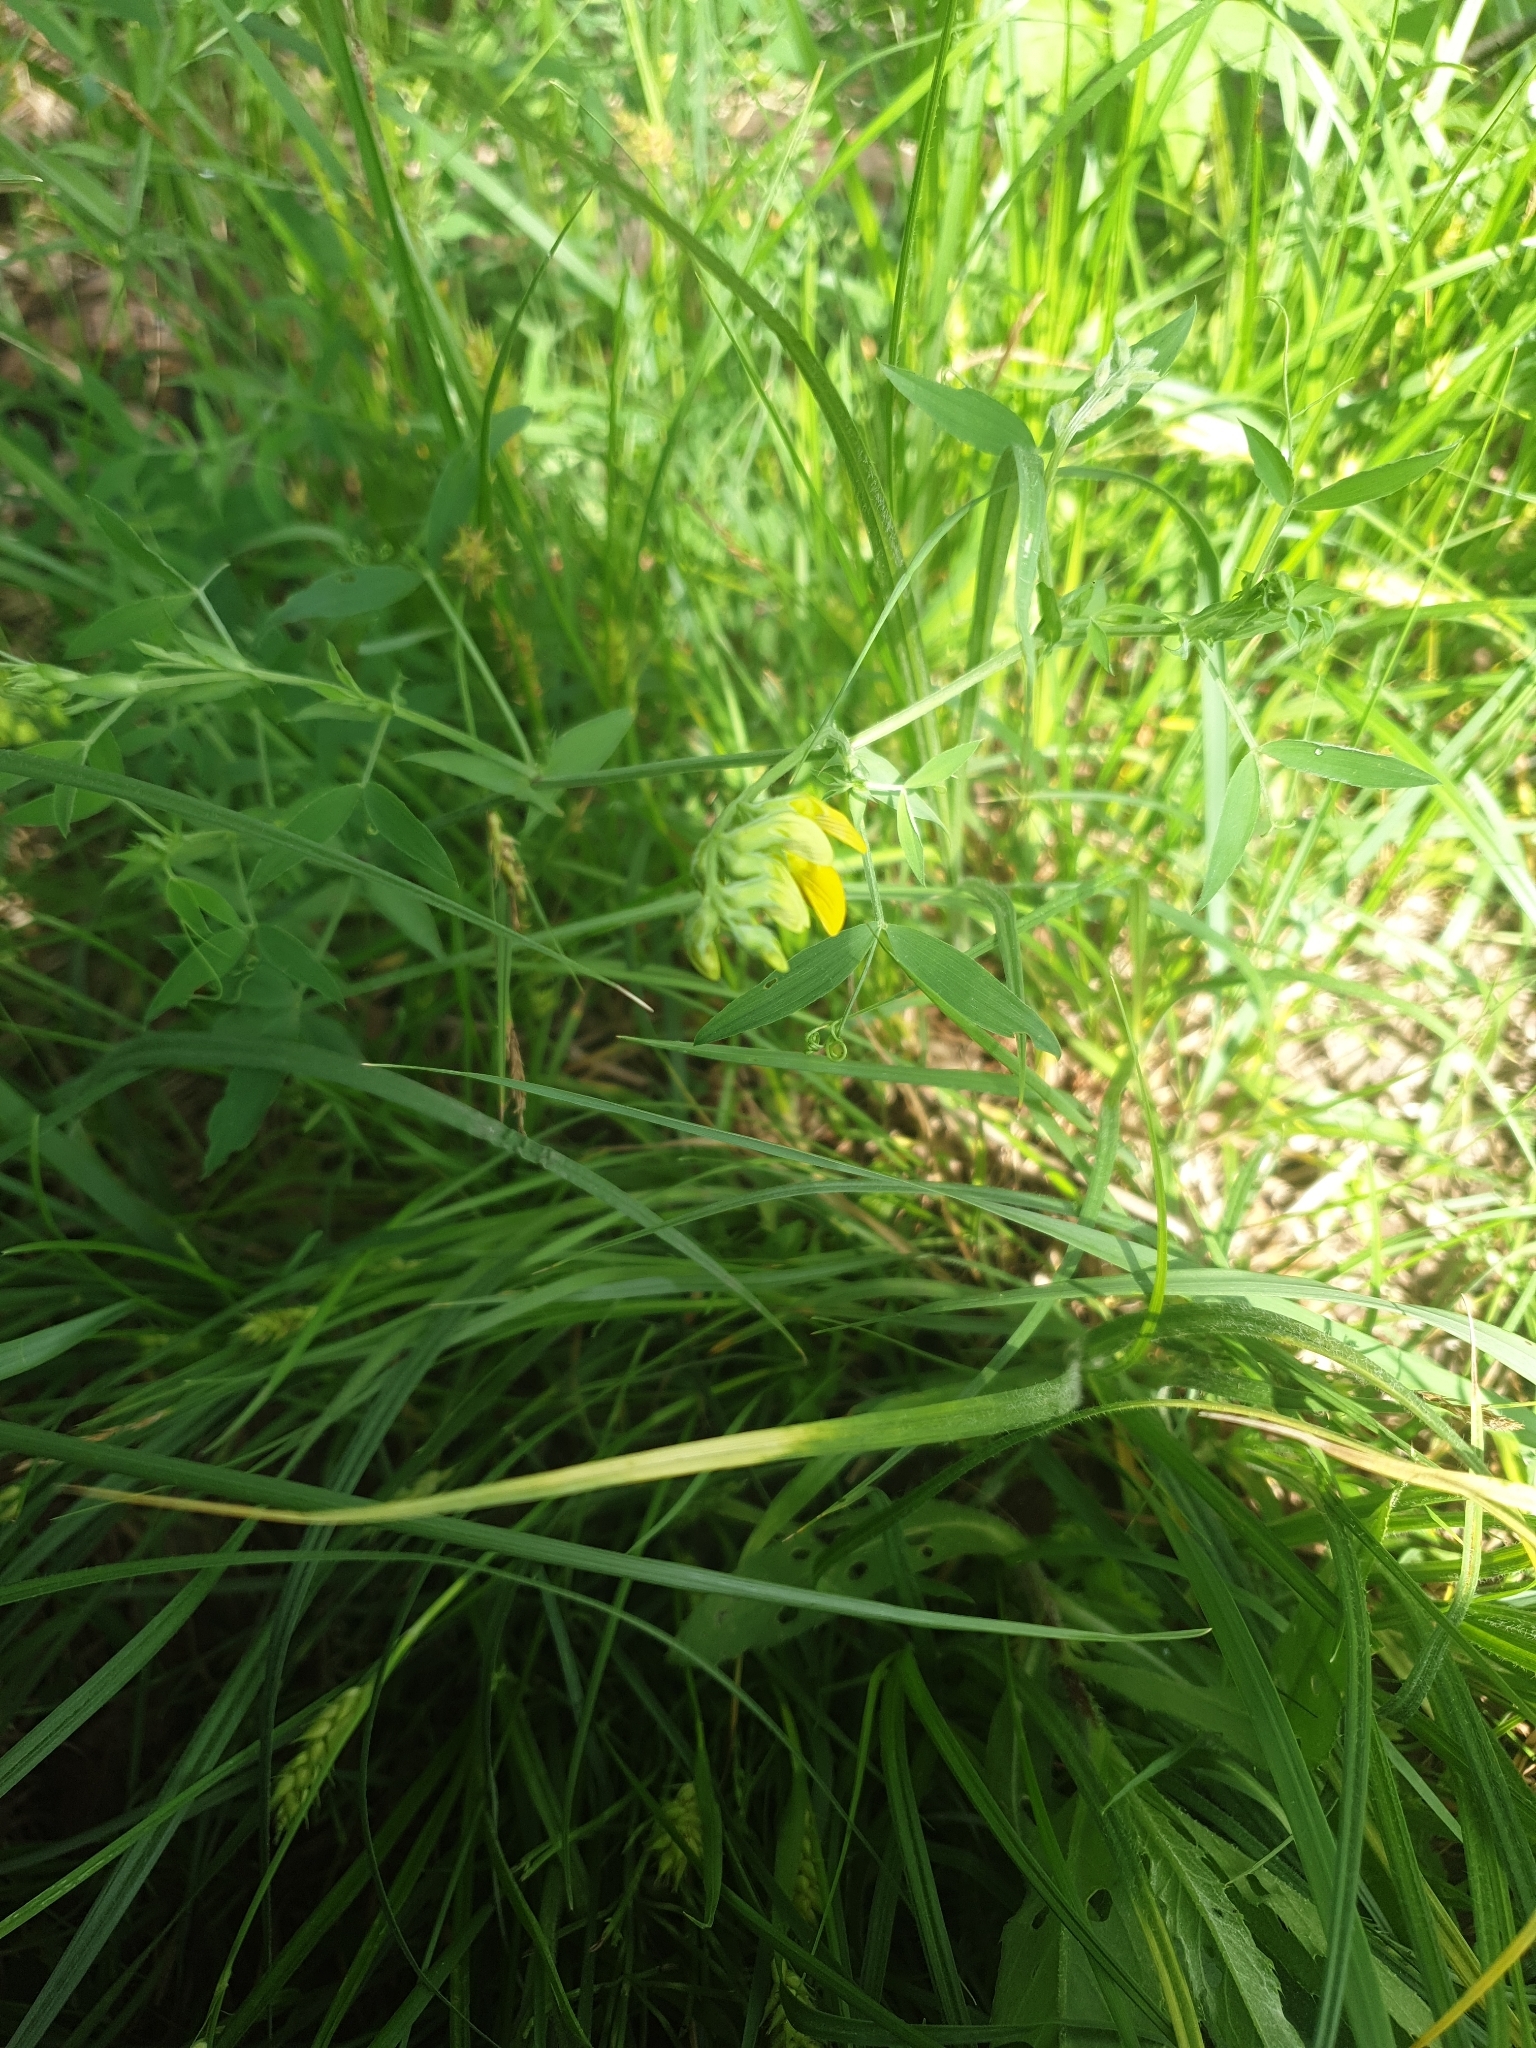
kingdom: Plantae
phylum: Tracheophyta
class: Magnoliopsida
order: Fabales
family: Fabaceae
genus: Lathyrus
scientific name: Lathyrus pratensis
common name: Meadow vetchling
